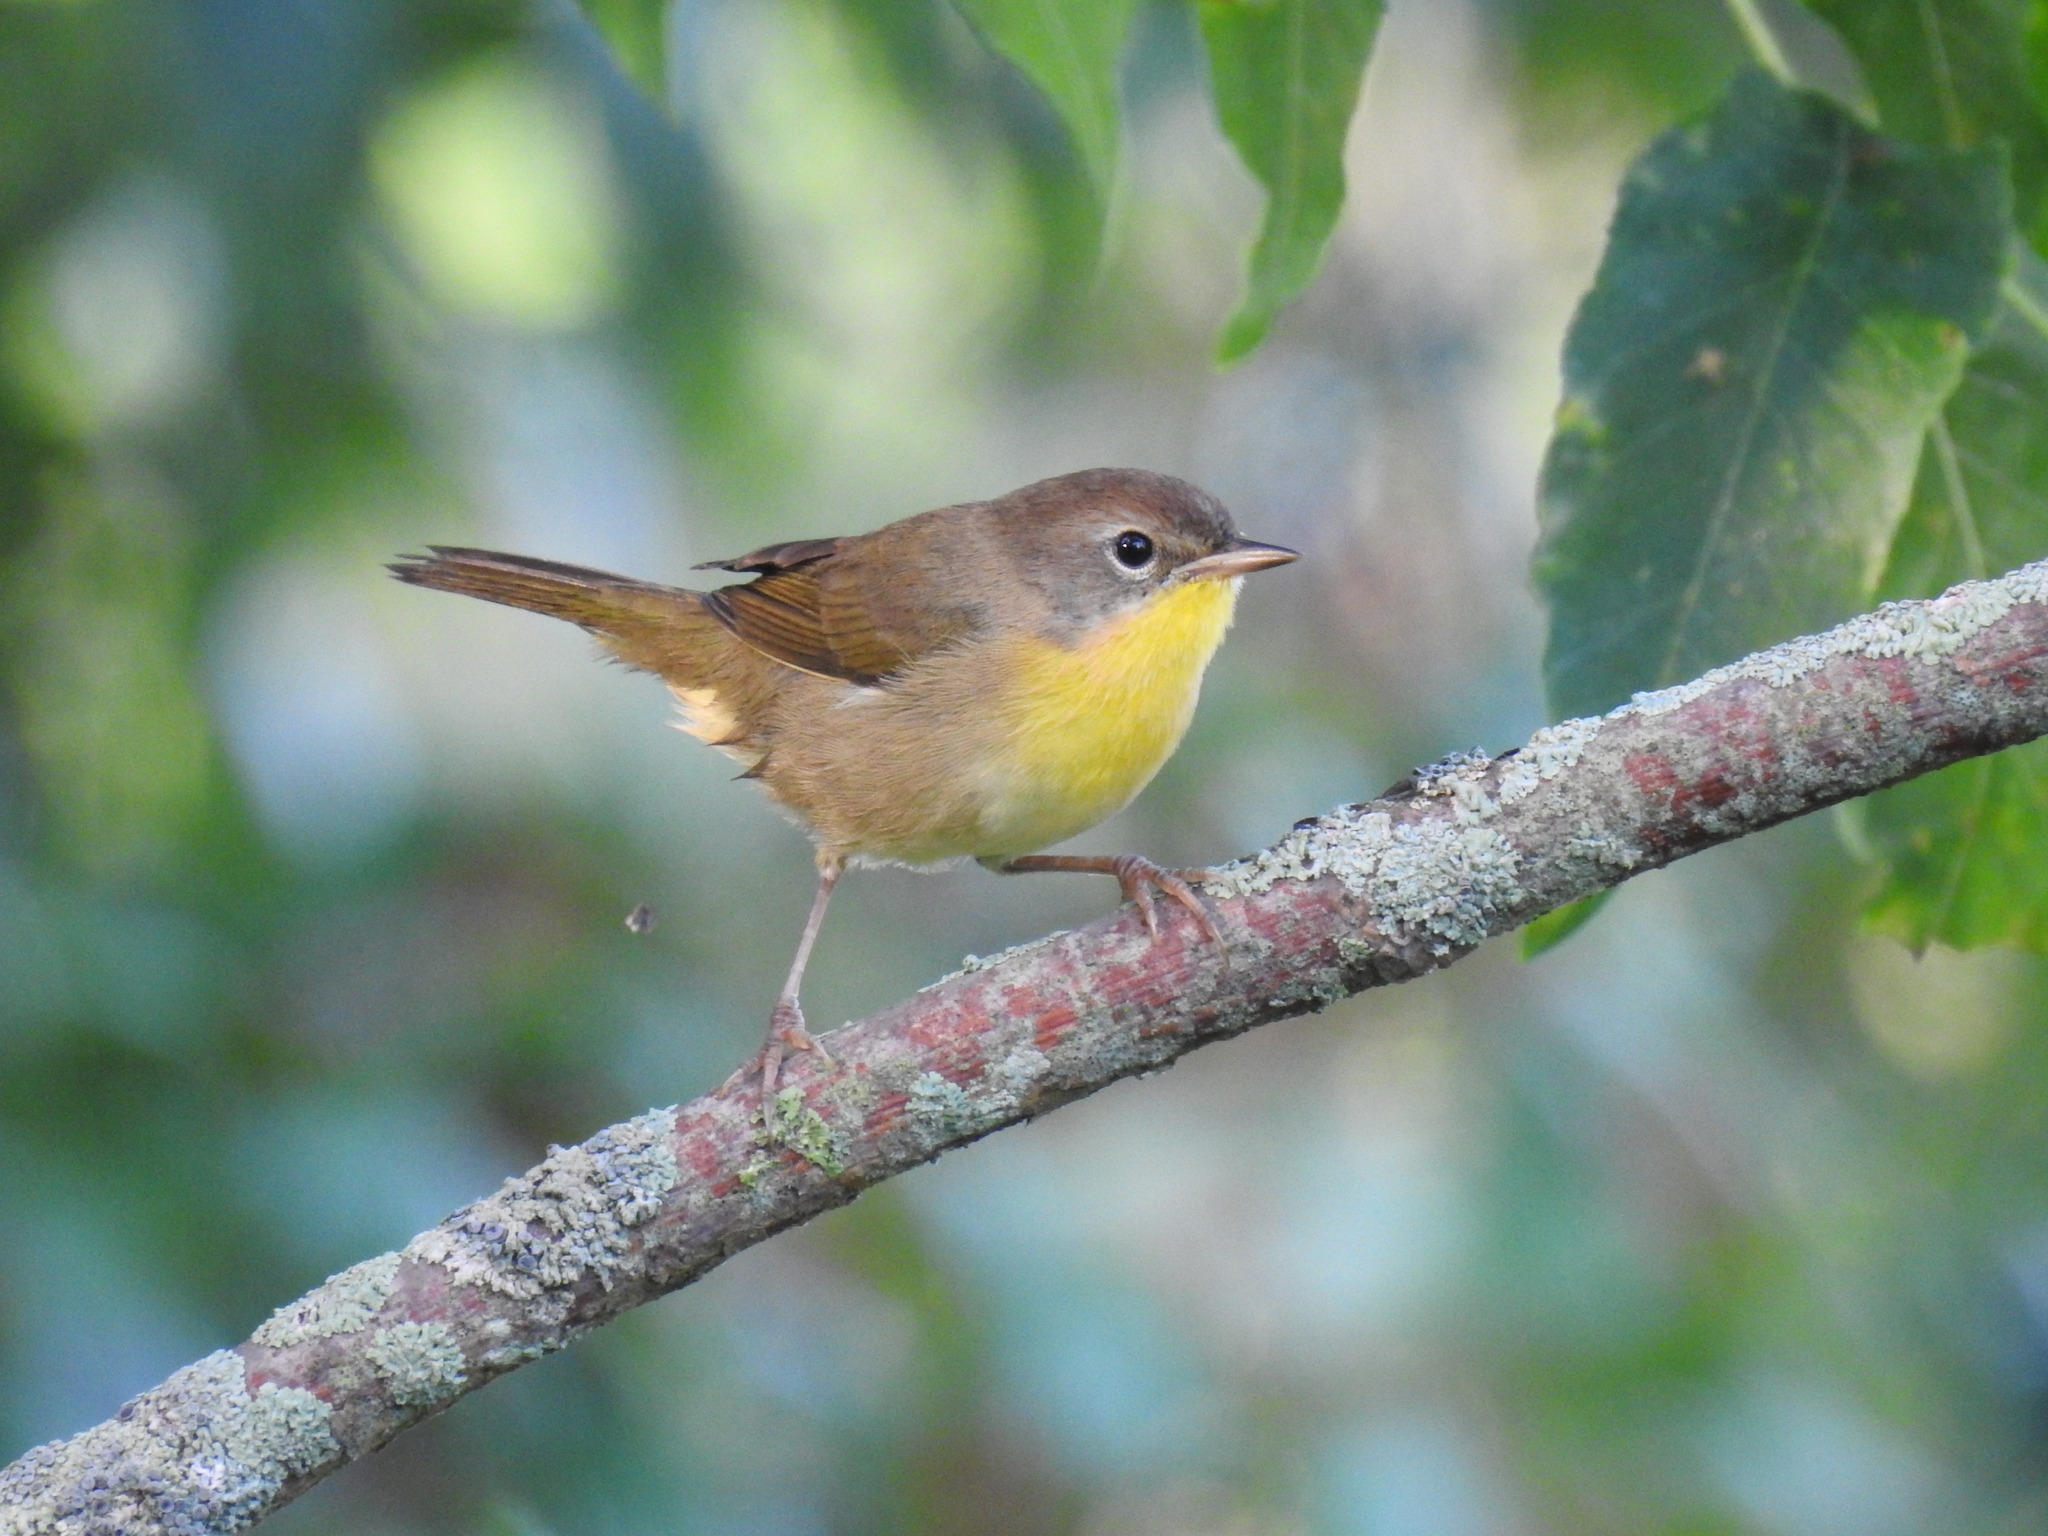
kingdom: Animalia
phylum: Chordata
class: Aves
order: Passeriformes
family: Parulidae
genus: Geothlypis
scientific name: Geothlypis trichas
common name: Common yellowthroat
